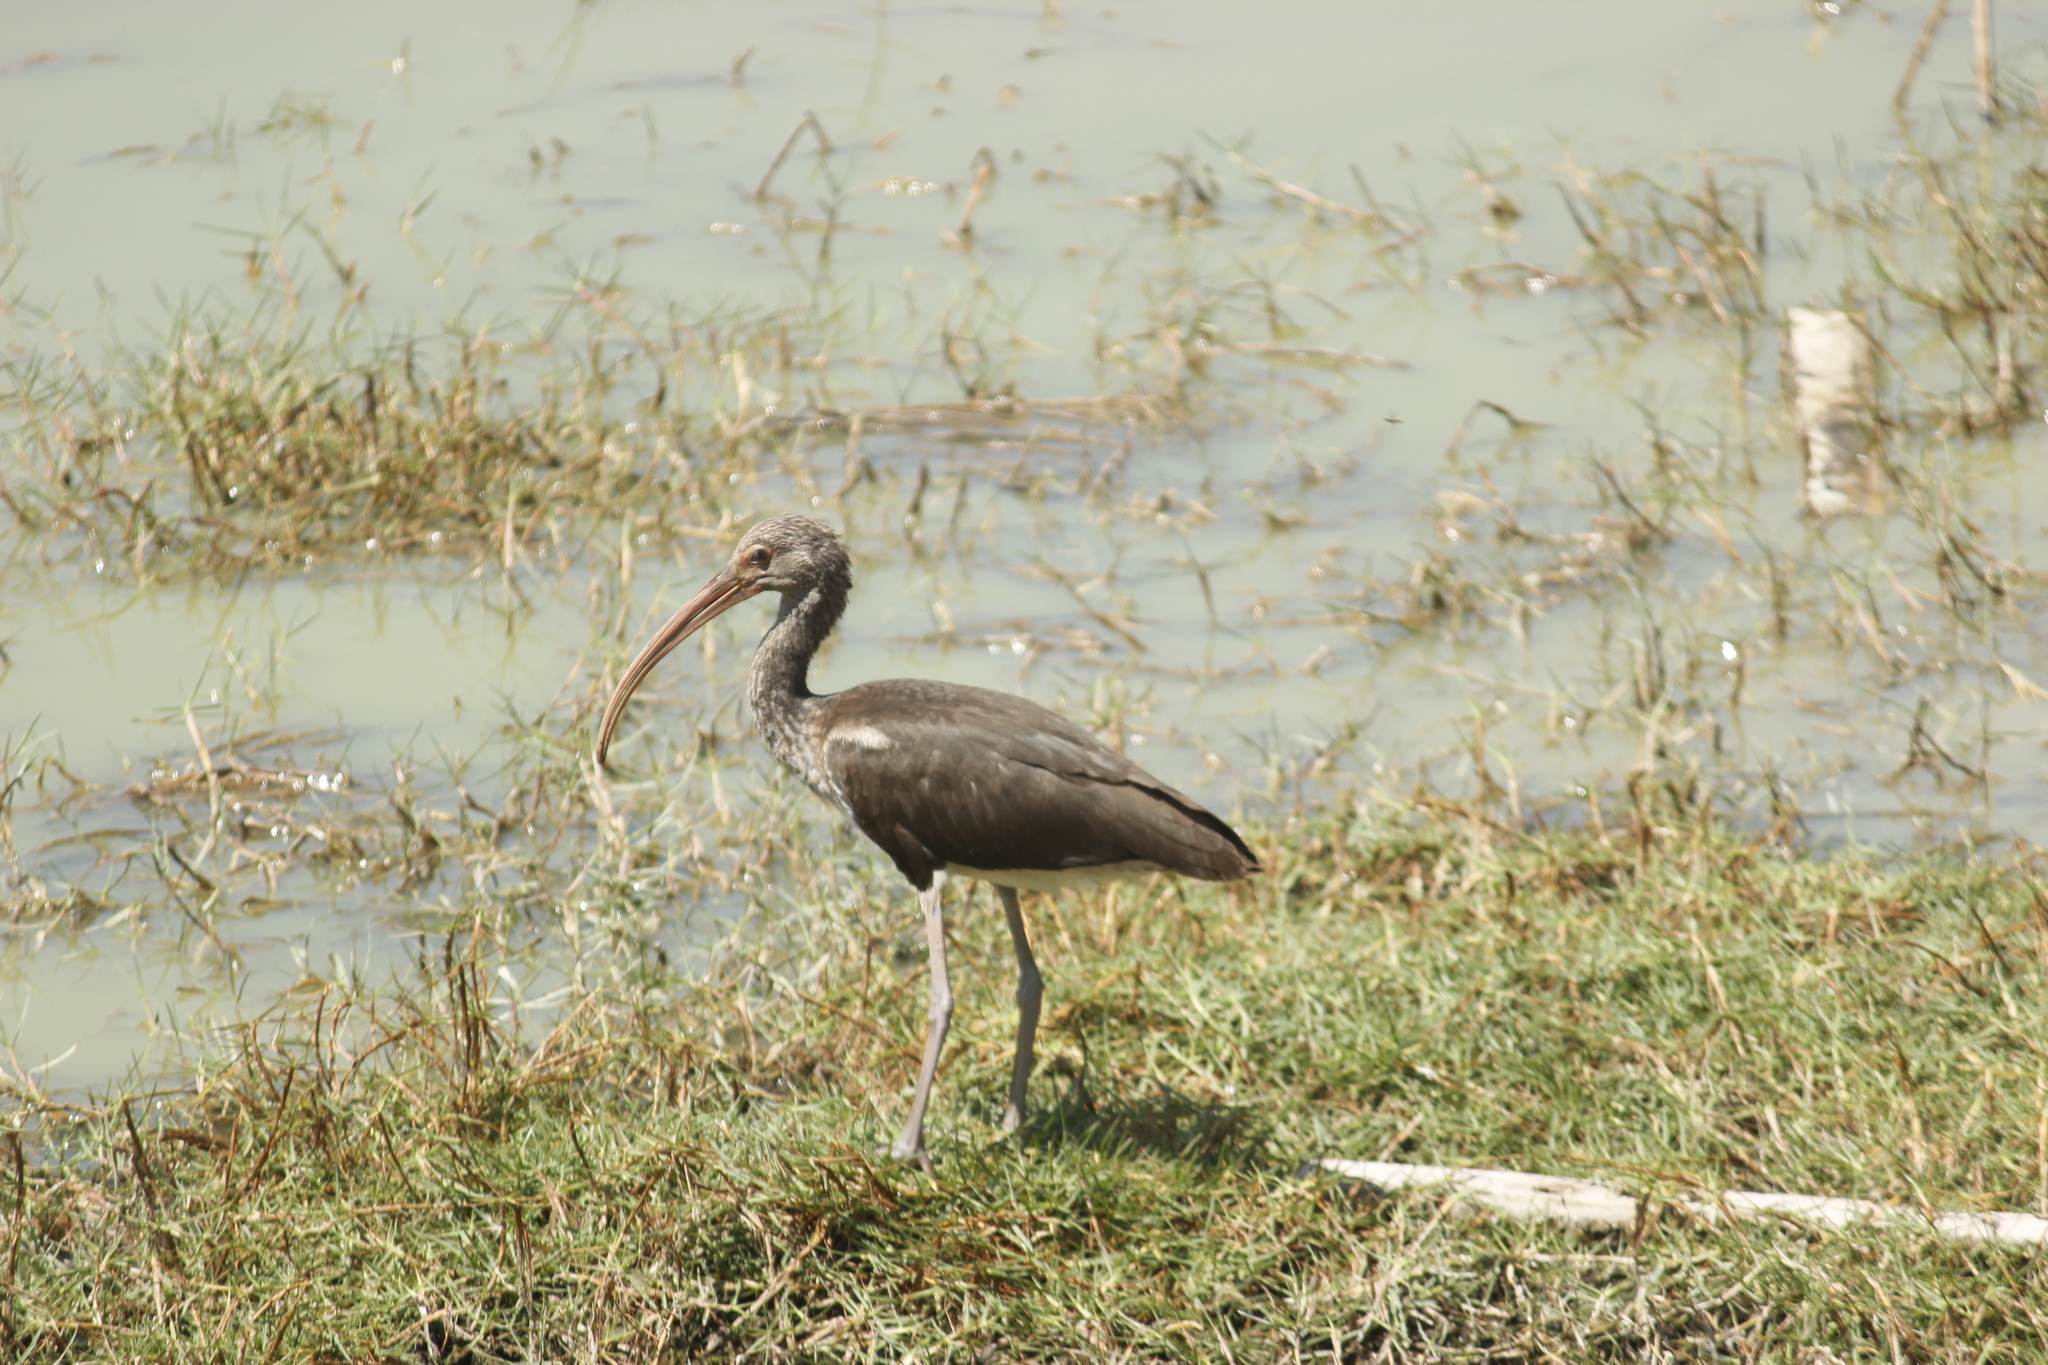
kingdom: Animalia
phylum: Chordata
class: Aves
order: Pelecaniformes
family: Threskiornithidae
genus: Eudocimus
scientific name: Eudocimus albus
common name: White ibis
